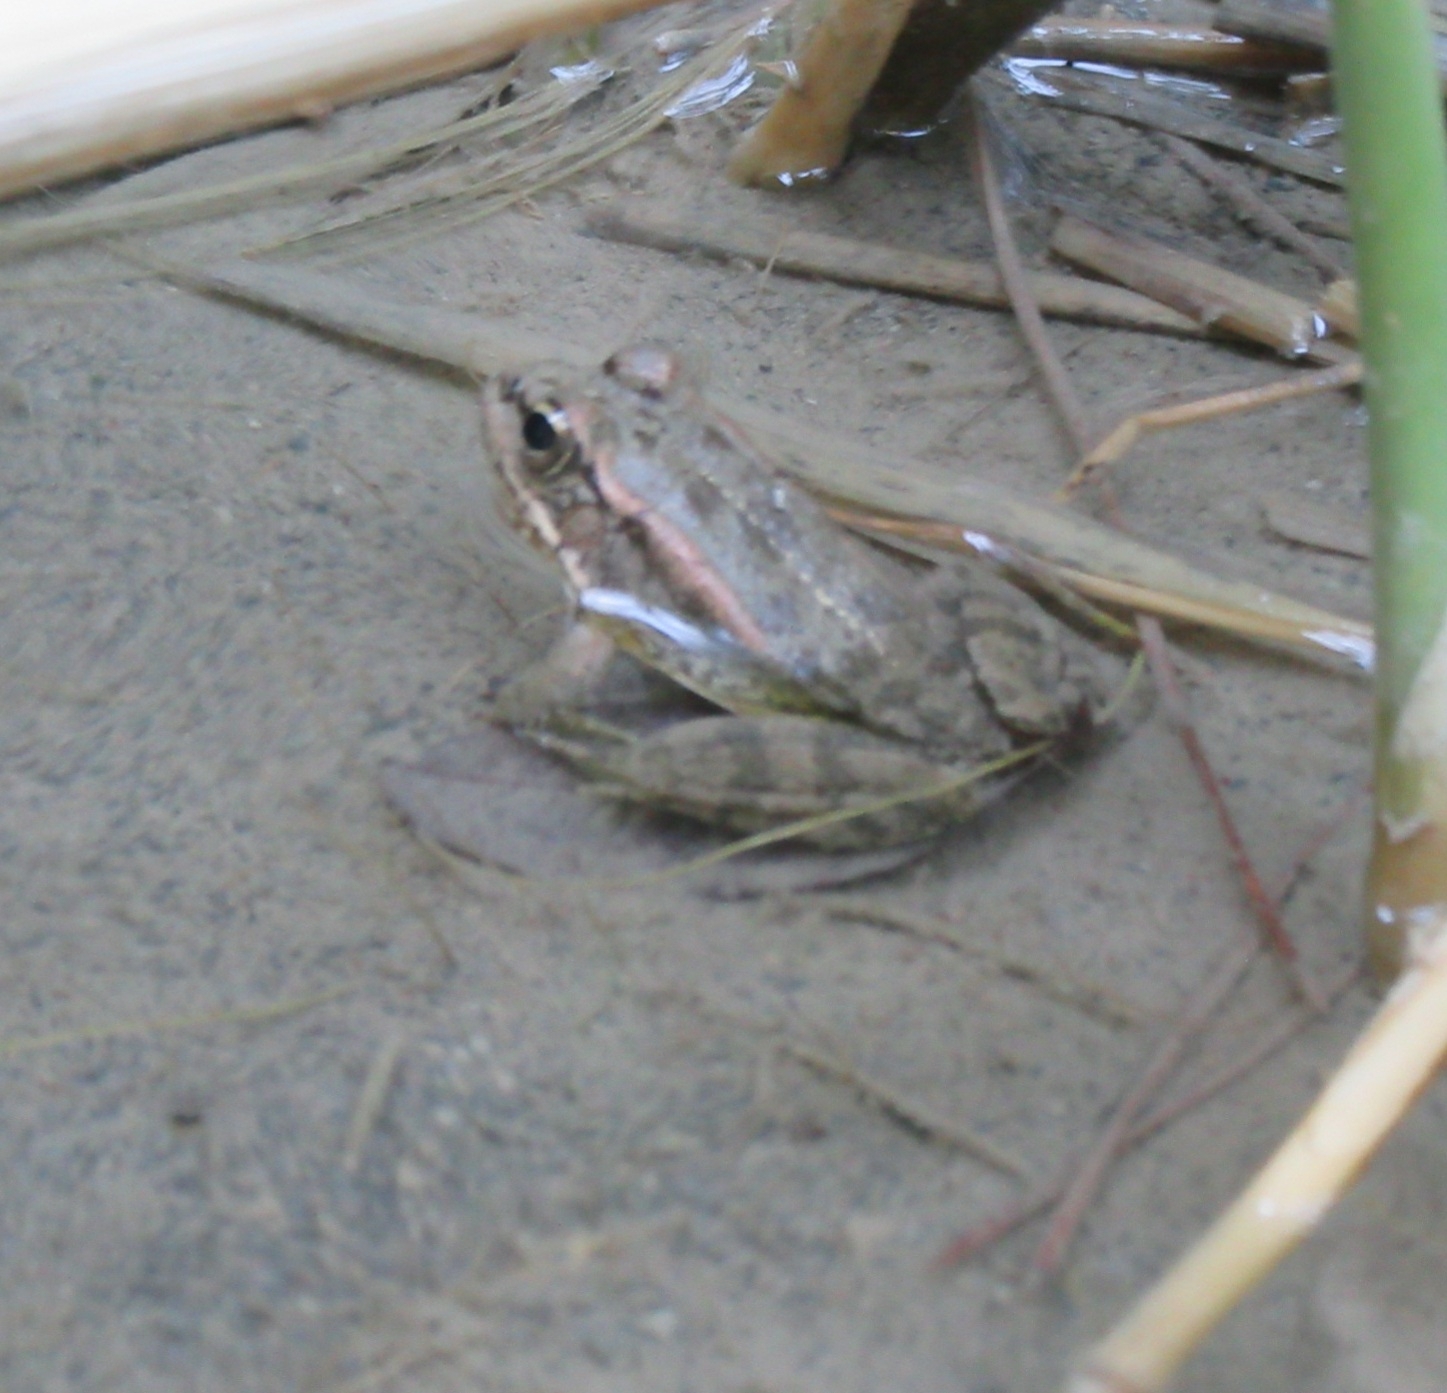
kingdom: Animalia
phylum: Chordata
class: Amphibia
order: Anura
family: Ranidae
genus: Pelophylax
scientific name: Pelophylax cretensis
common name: Cretan frog
